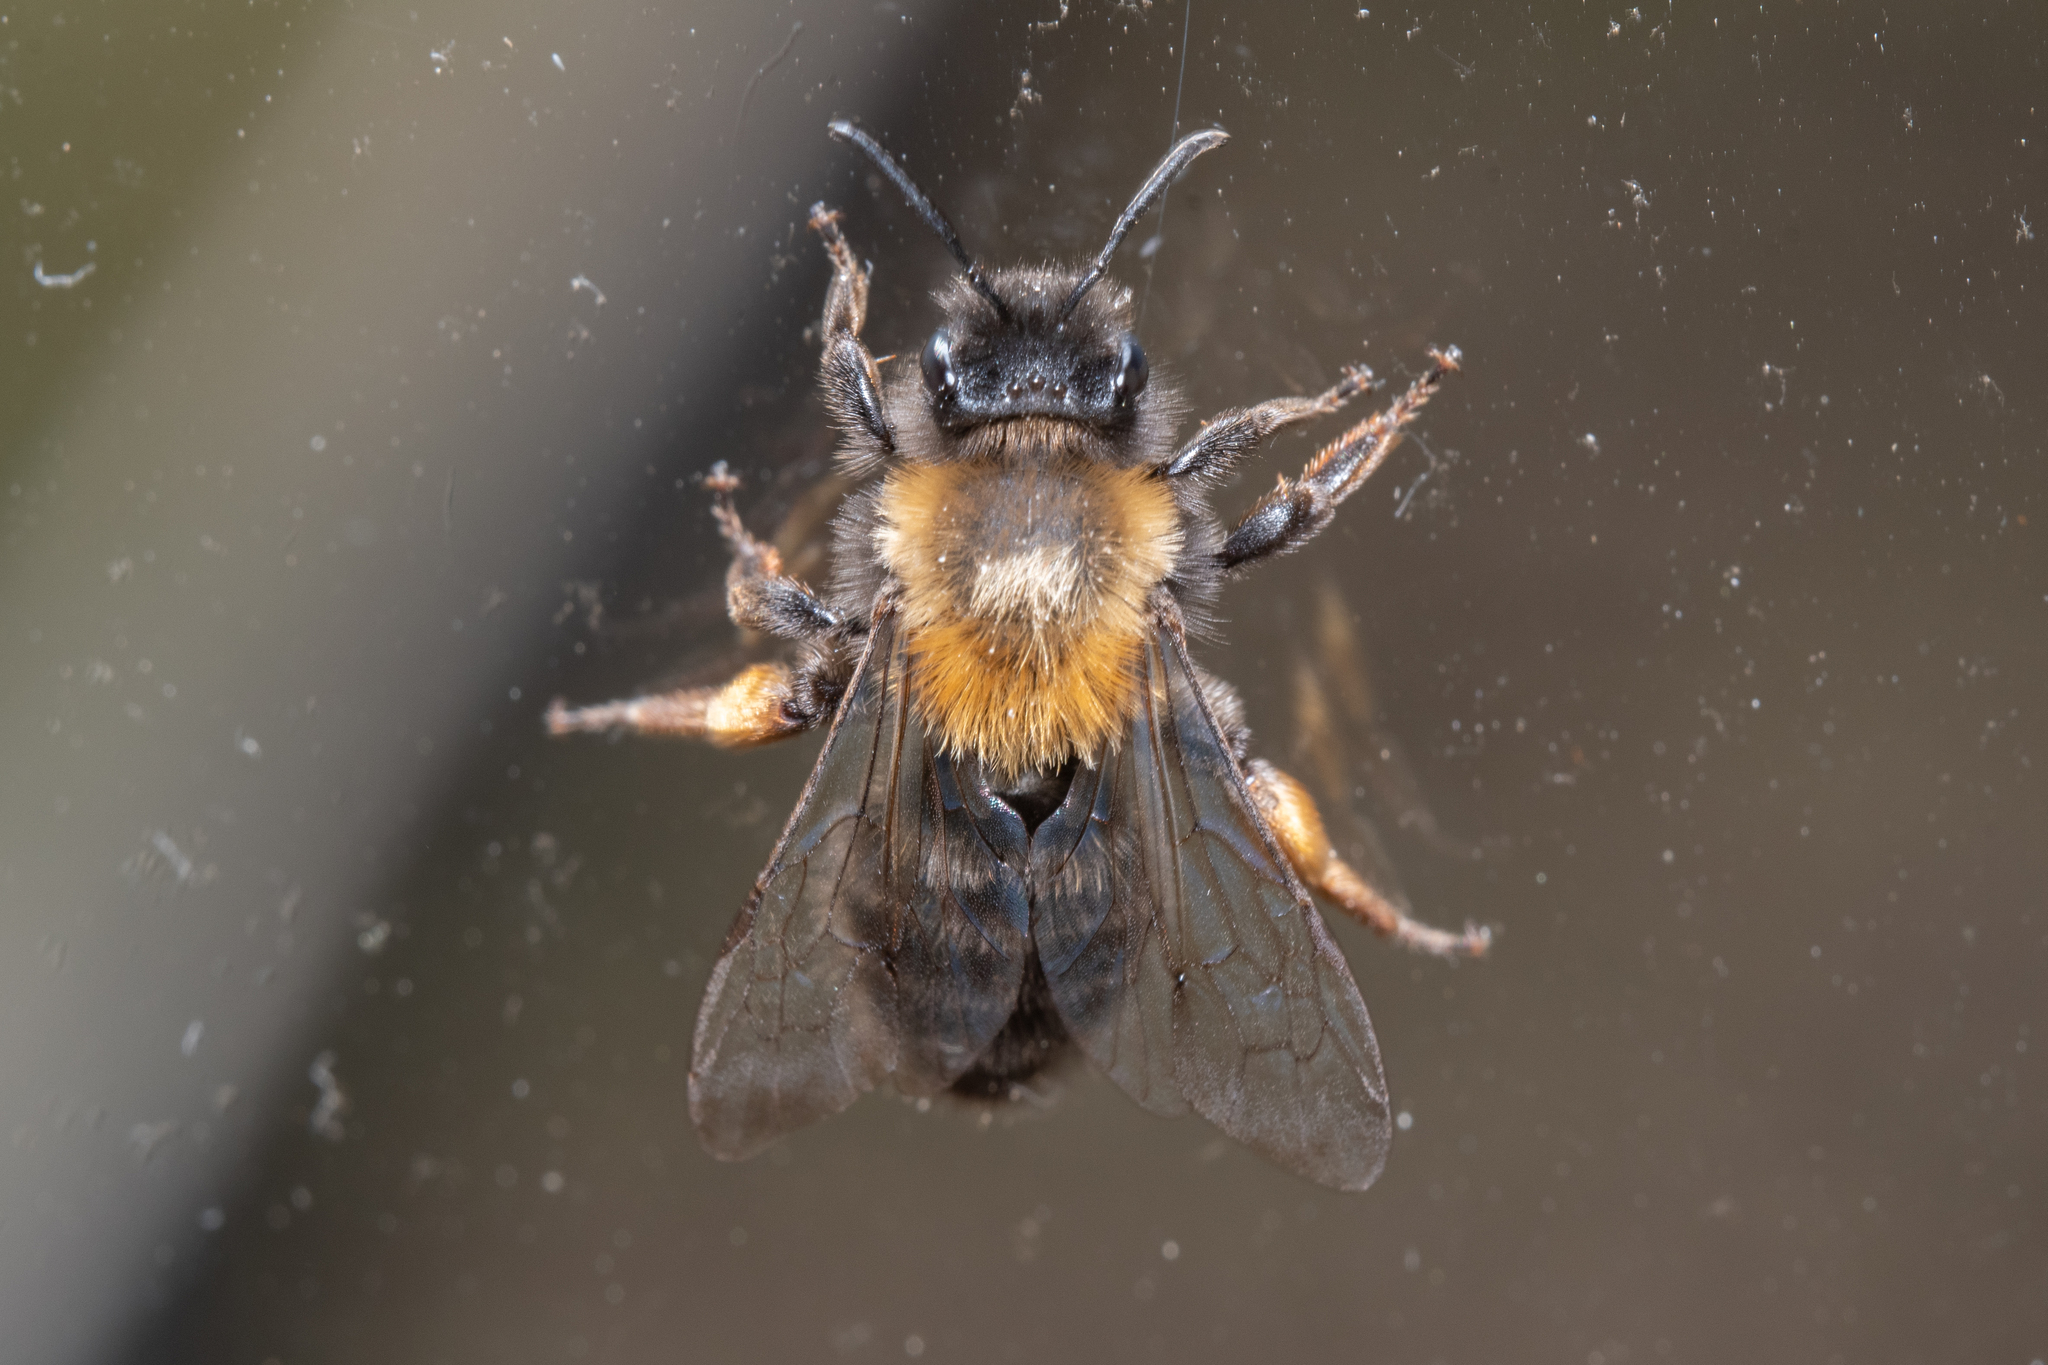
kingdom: Animalia
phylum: Arthropoda
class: Insecta
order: Hymenoptera
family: Andrenidae
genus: Andrena
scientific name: Andrena clarkella
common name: Clarke's mining bee
